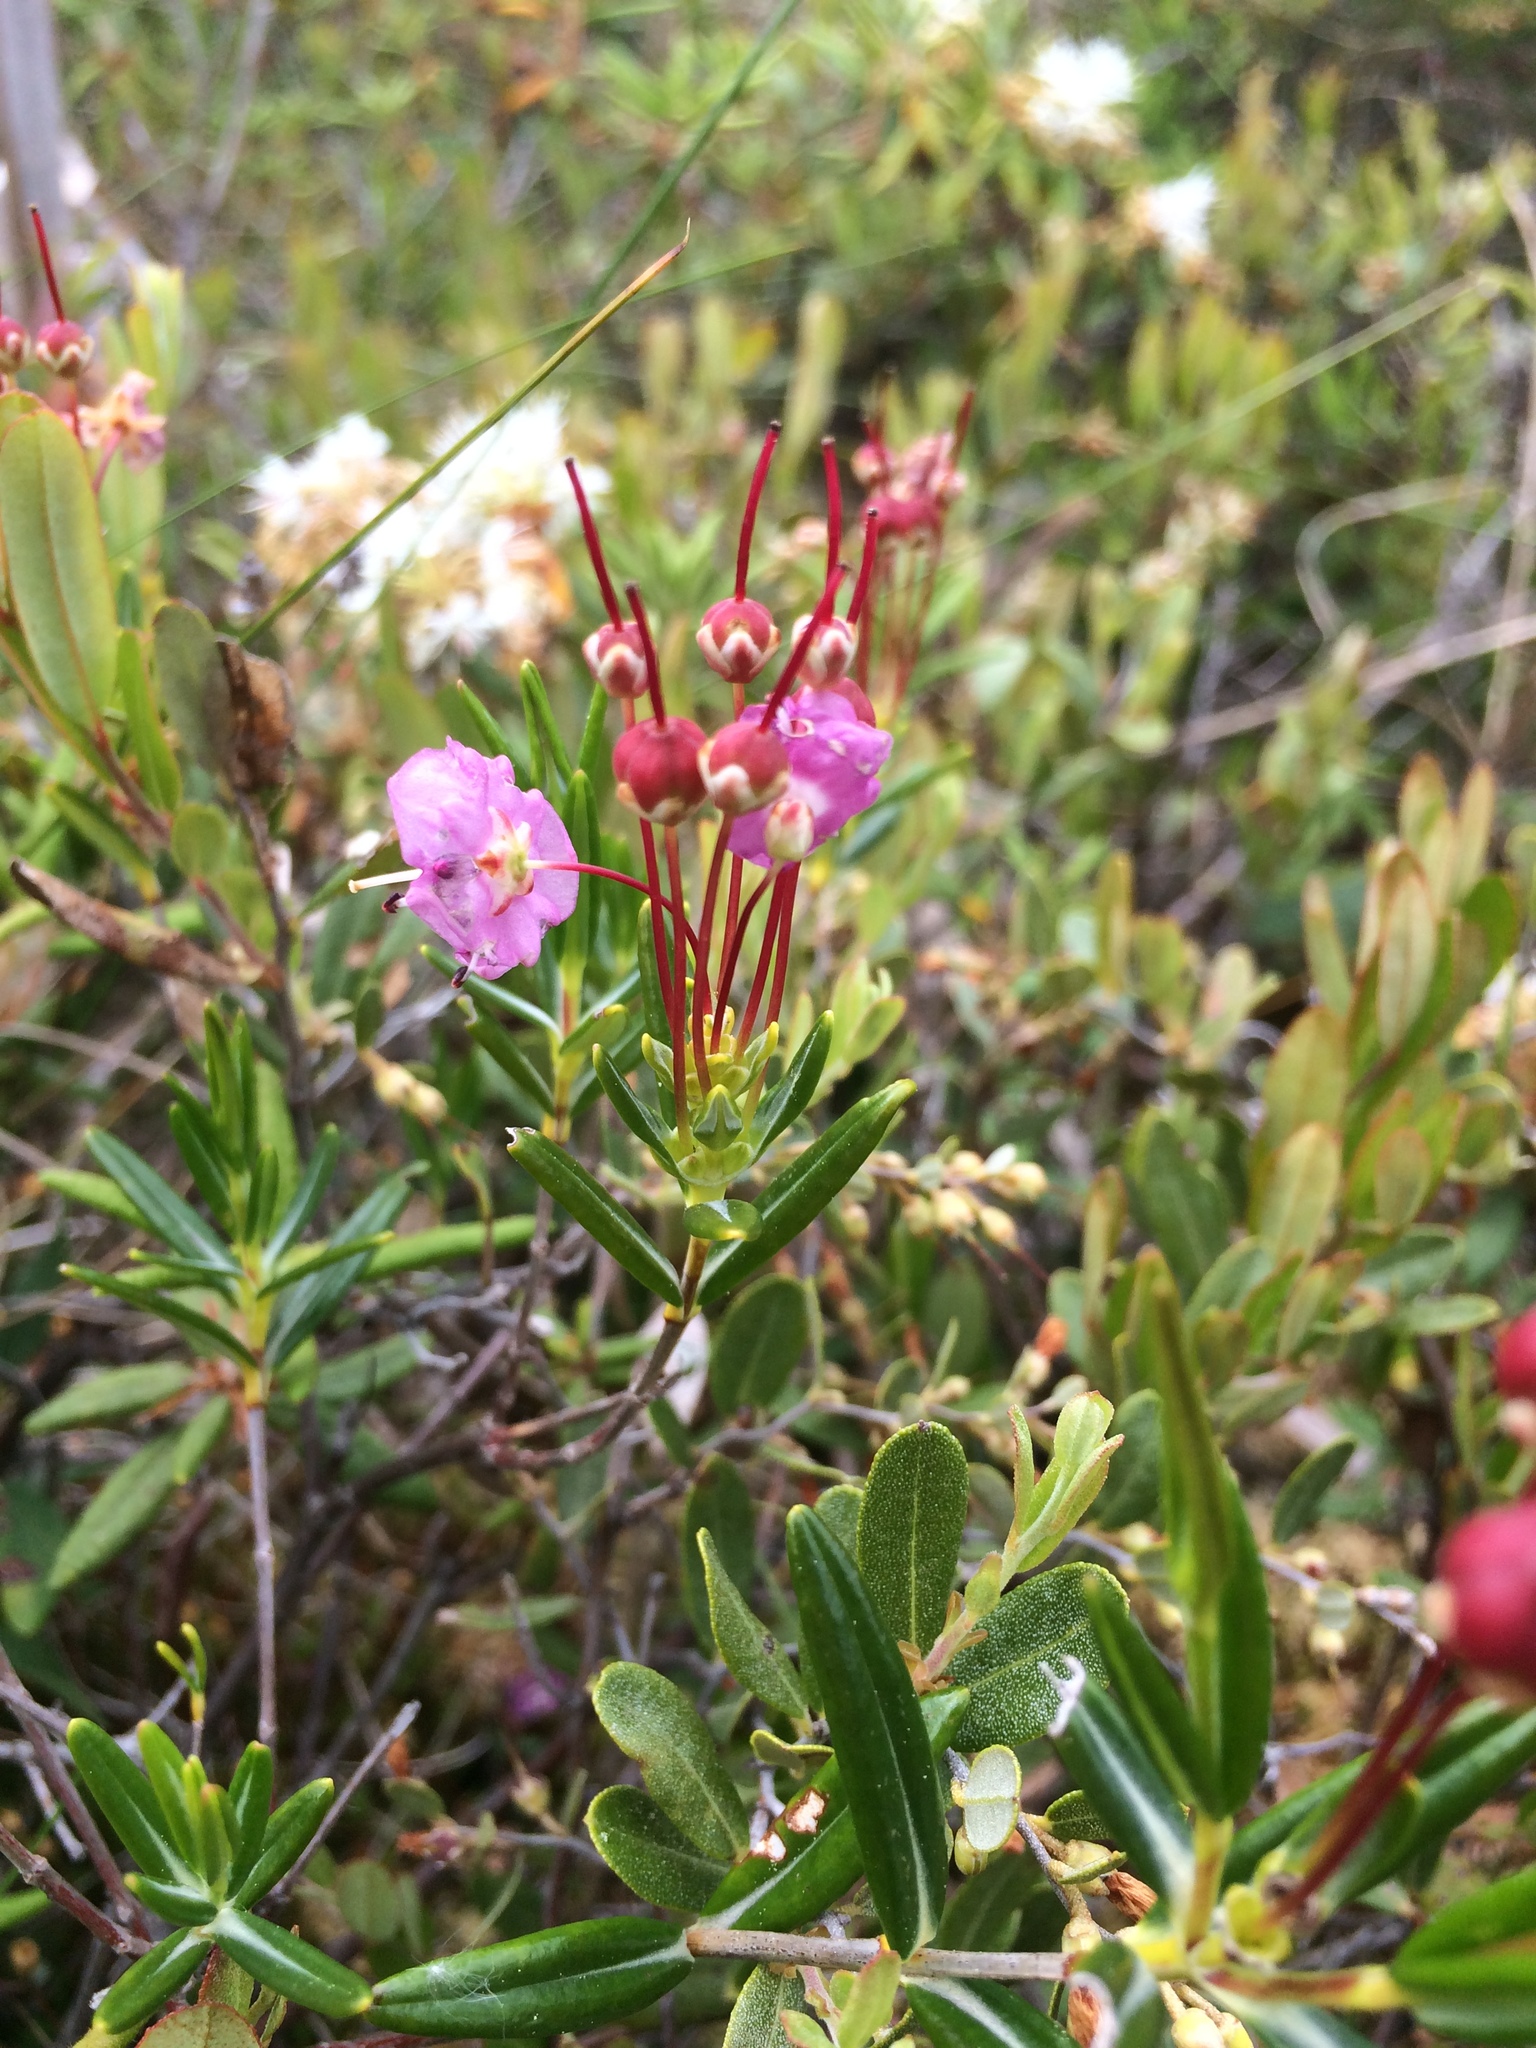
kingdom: Plantae
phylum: Tracheophyta
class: Magnoliopsida
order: Ericales
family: Ericaceae
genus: Kalmia
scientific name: Kalmia polifolia
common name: Bog-laurel
